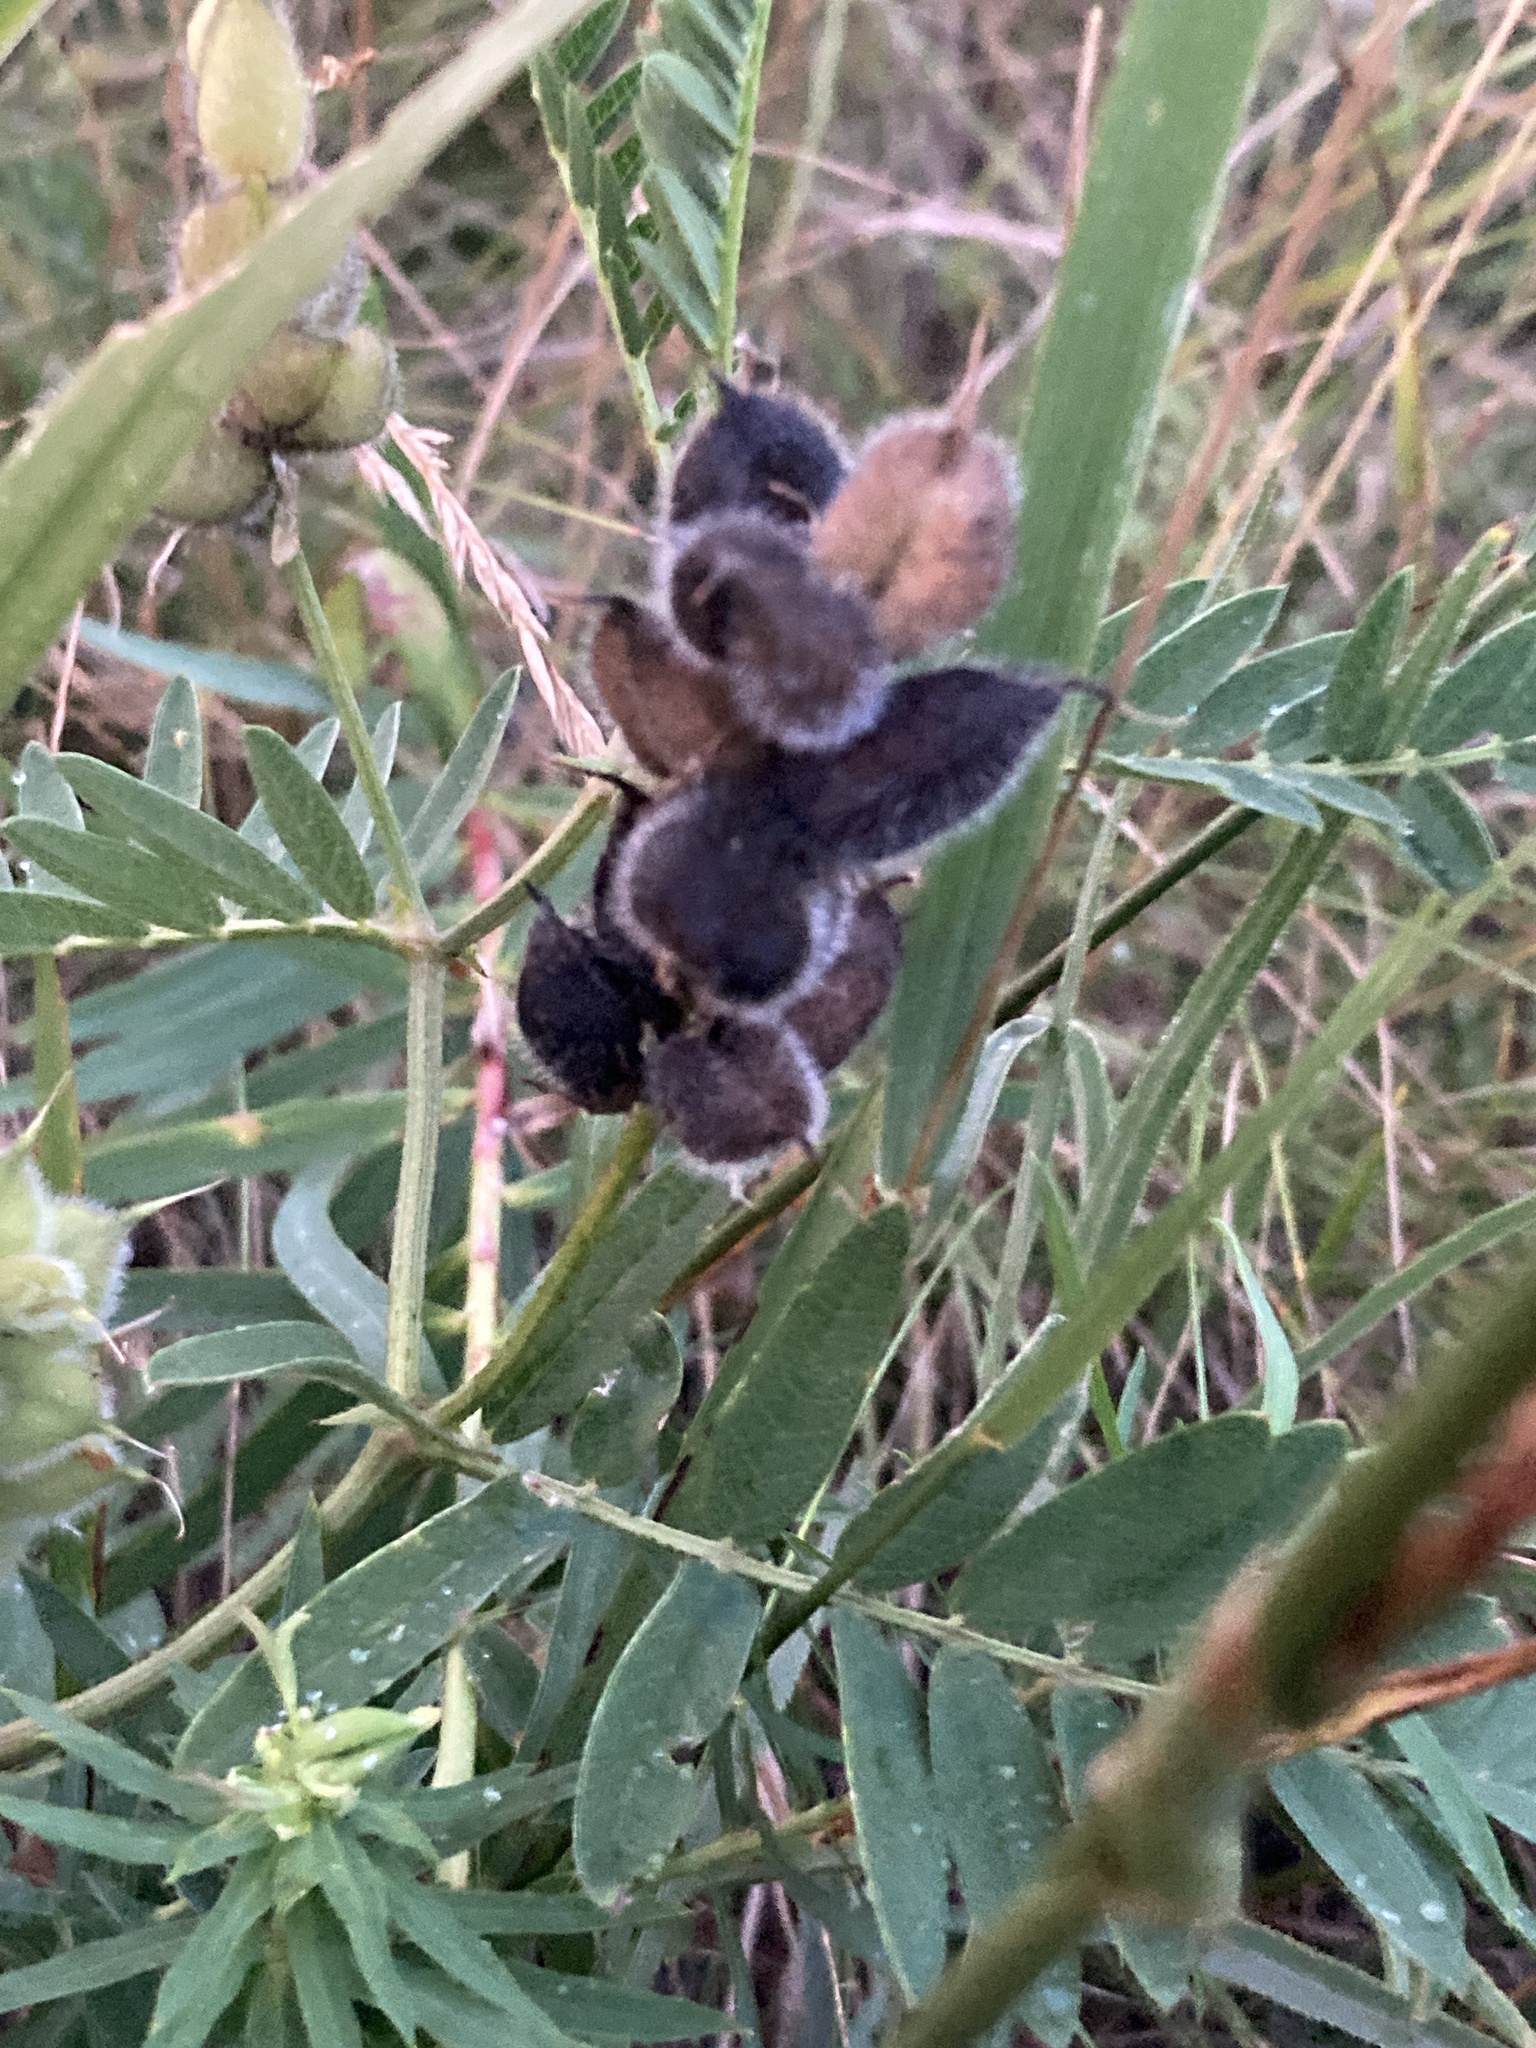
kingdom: Plantae
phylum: Tracheophyta
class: Magnoliopsida
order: Fabales
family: Fabaceae
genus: Astragalus
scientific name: Astragalus cicer
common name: Chick-pea milk-vetch
